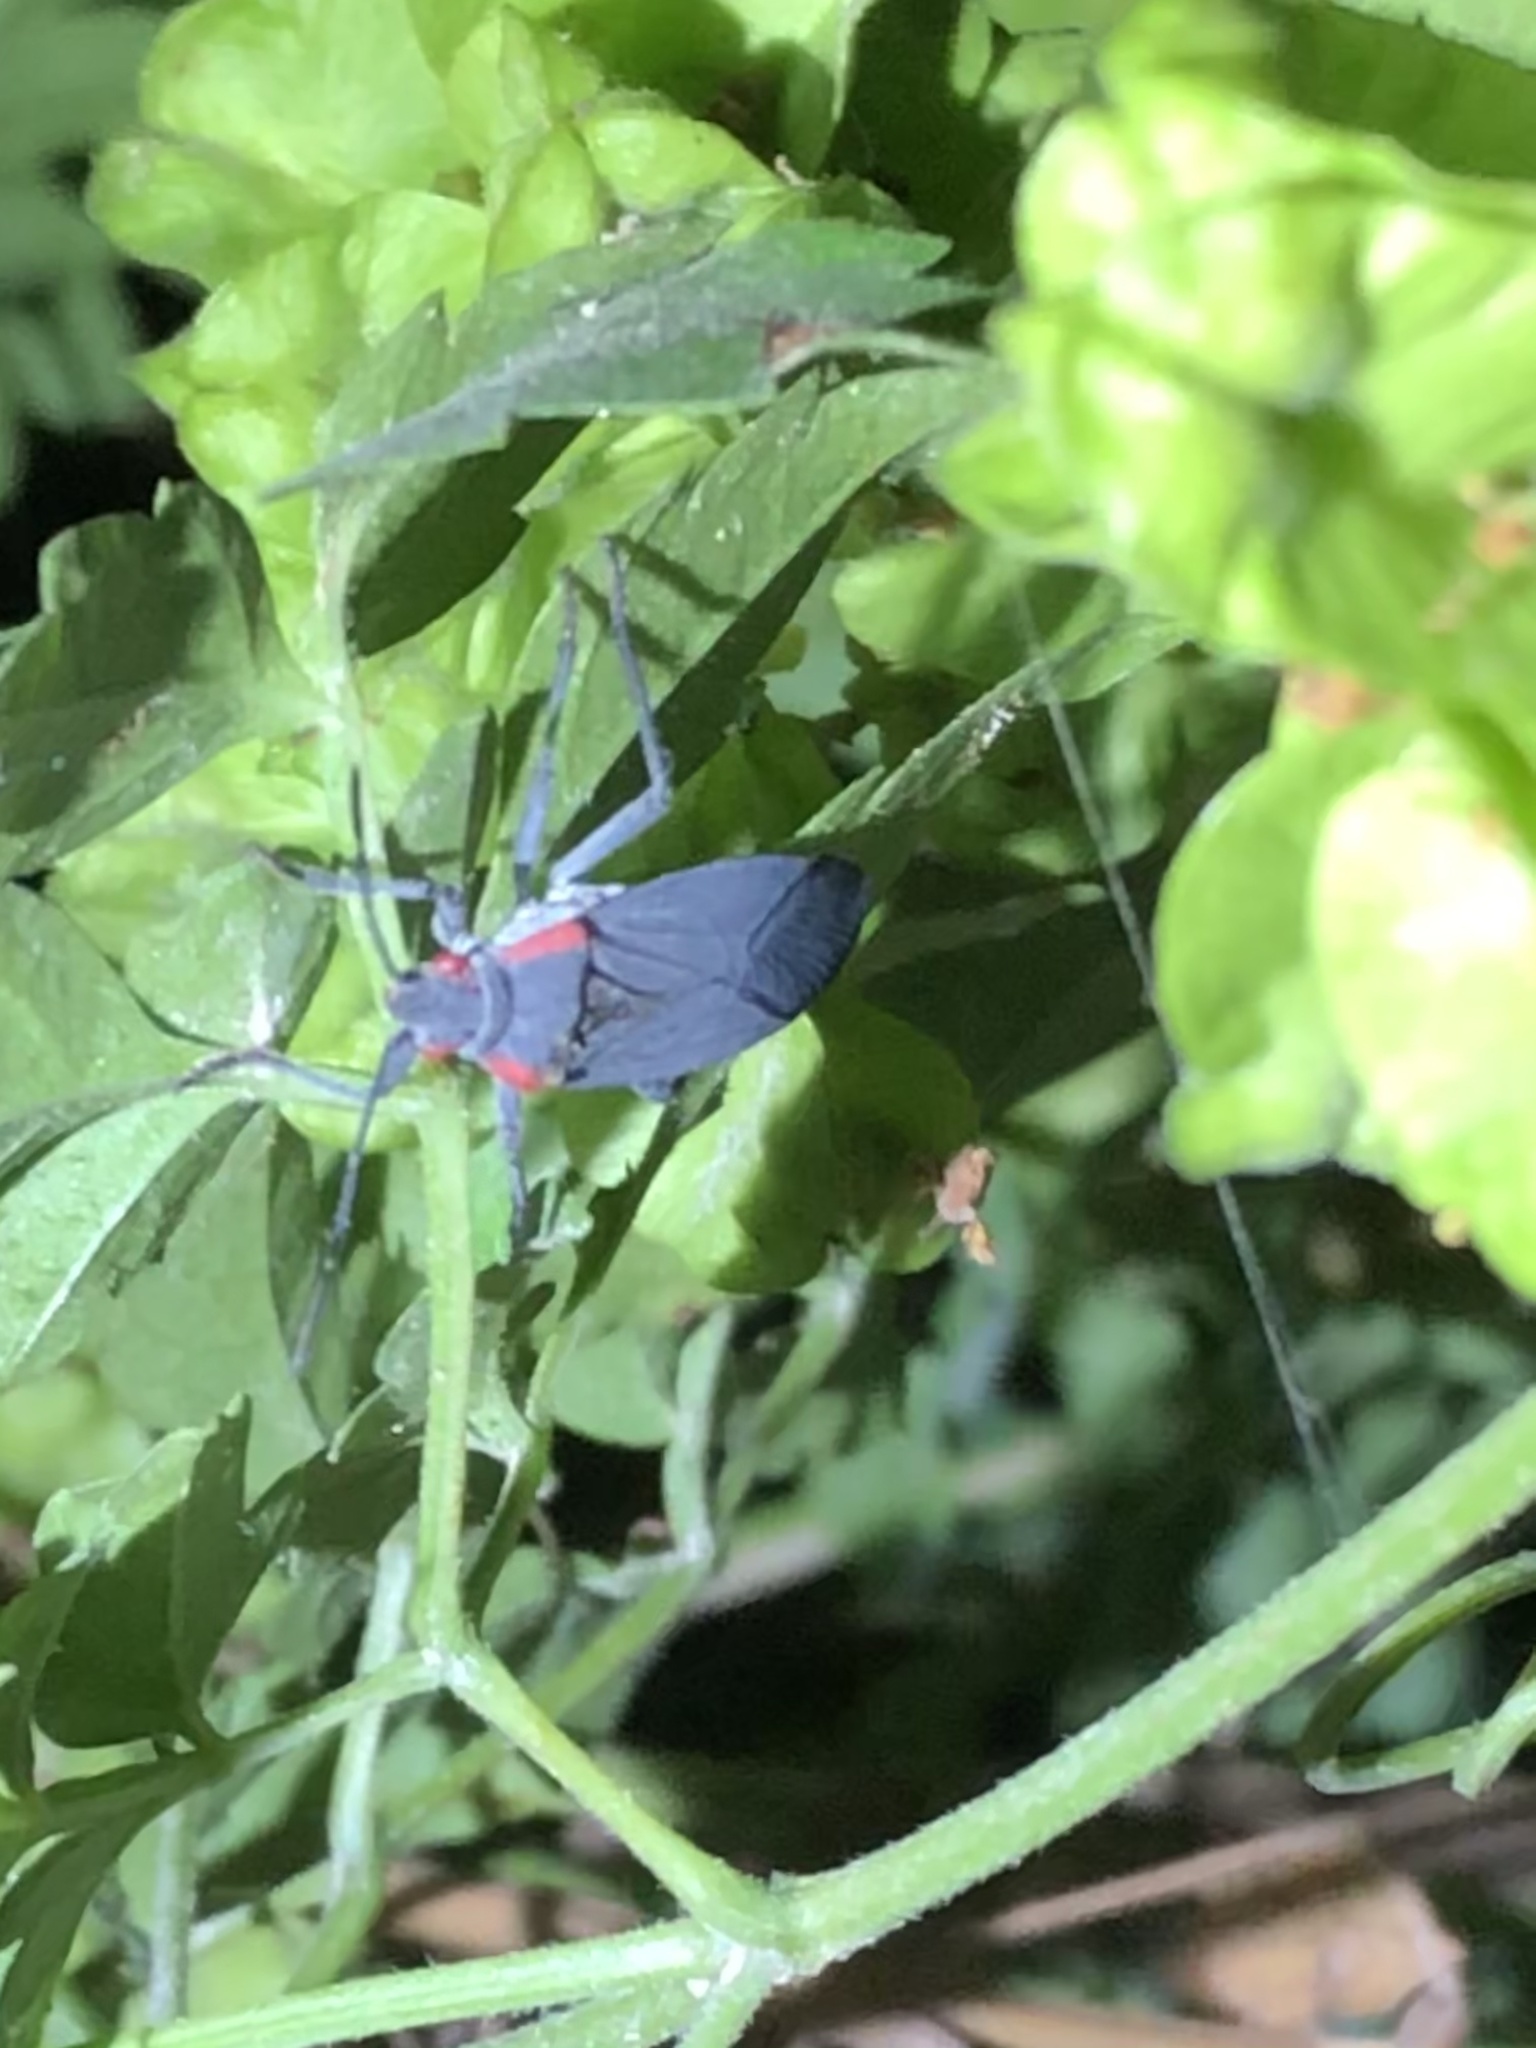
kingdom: Animalia
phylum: Arthropoda
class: Insecta
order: Hemiptera
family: Rhopalidae
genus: Jadera
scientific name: Jadera haematoloma
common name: Red-shouldered bug
